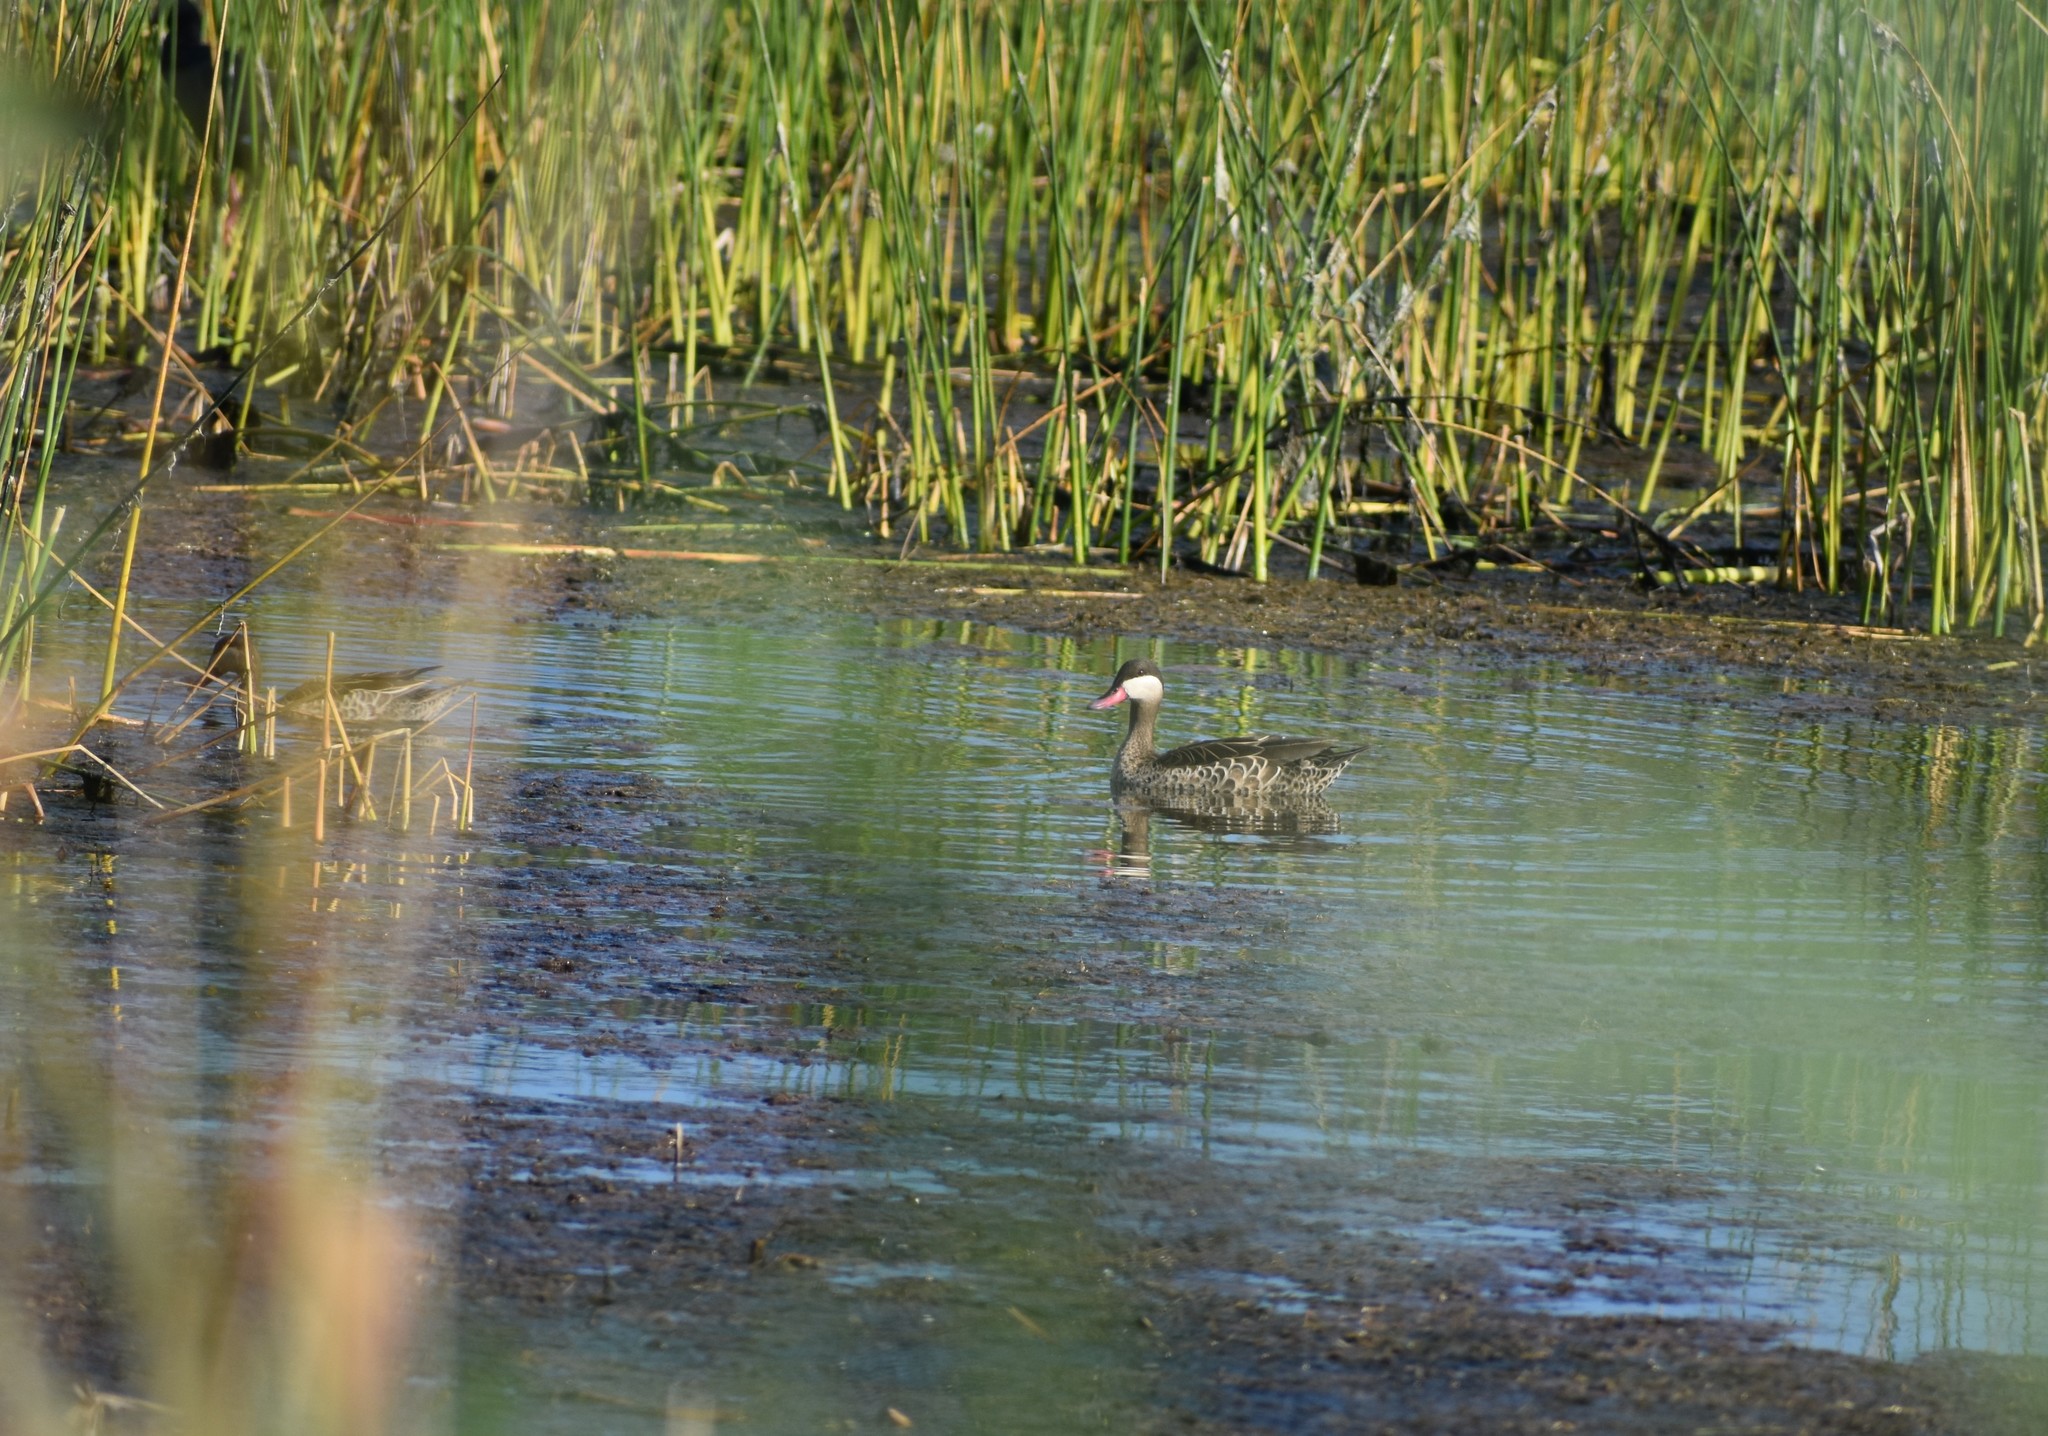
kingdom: Animalia
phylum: Chordata
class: Aves
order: Anseriformes
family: Anatidae
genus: Anas
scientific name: Anas erythrorhyncha
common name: Red-billed teal
